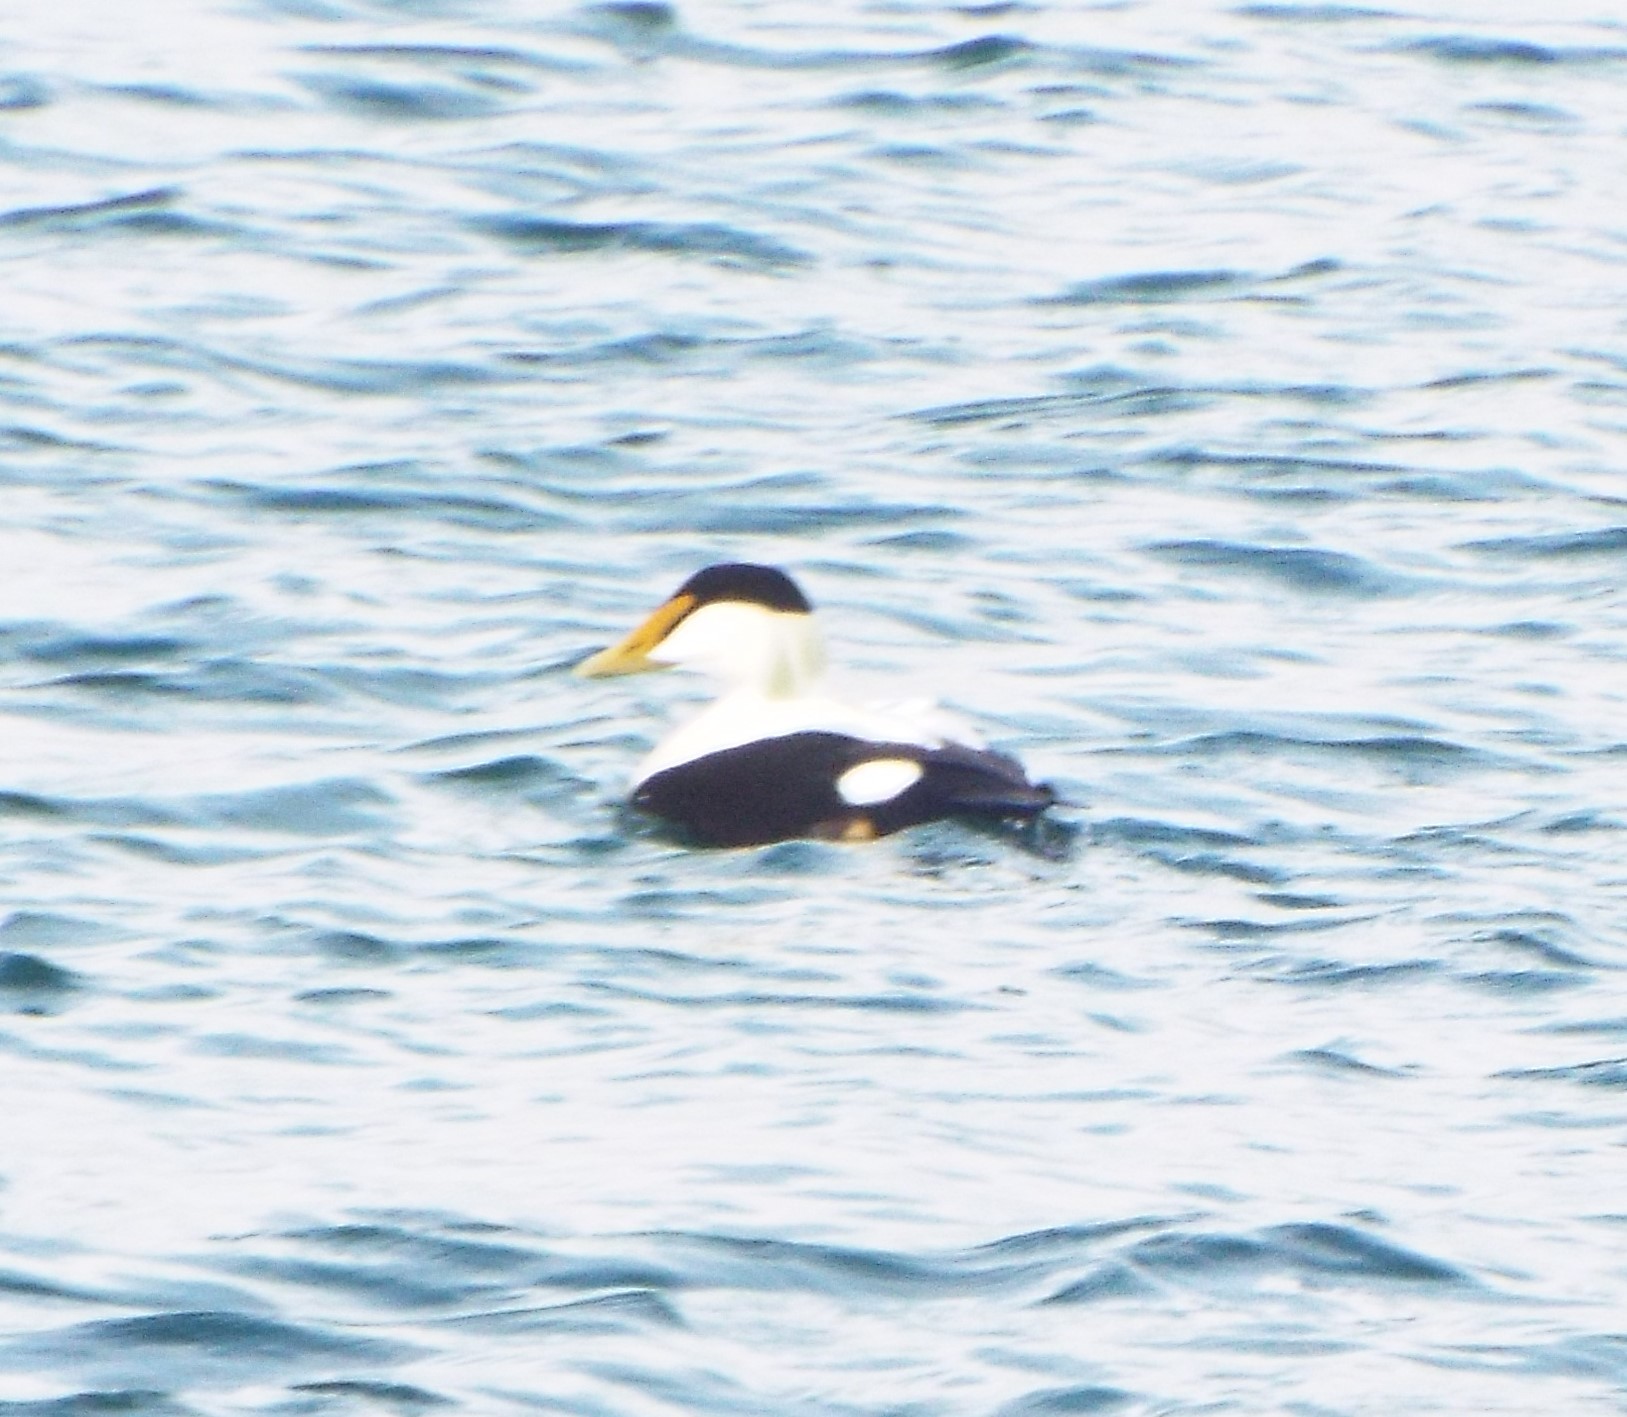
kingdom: Animalia
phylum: Chordata
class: Aves
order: Anseriformes
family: Anatidae
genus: Somateria
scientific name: Somateria mollissima
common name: Common eider
